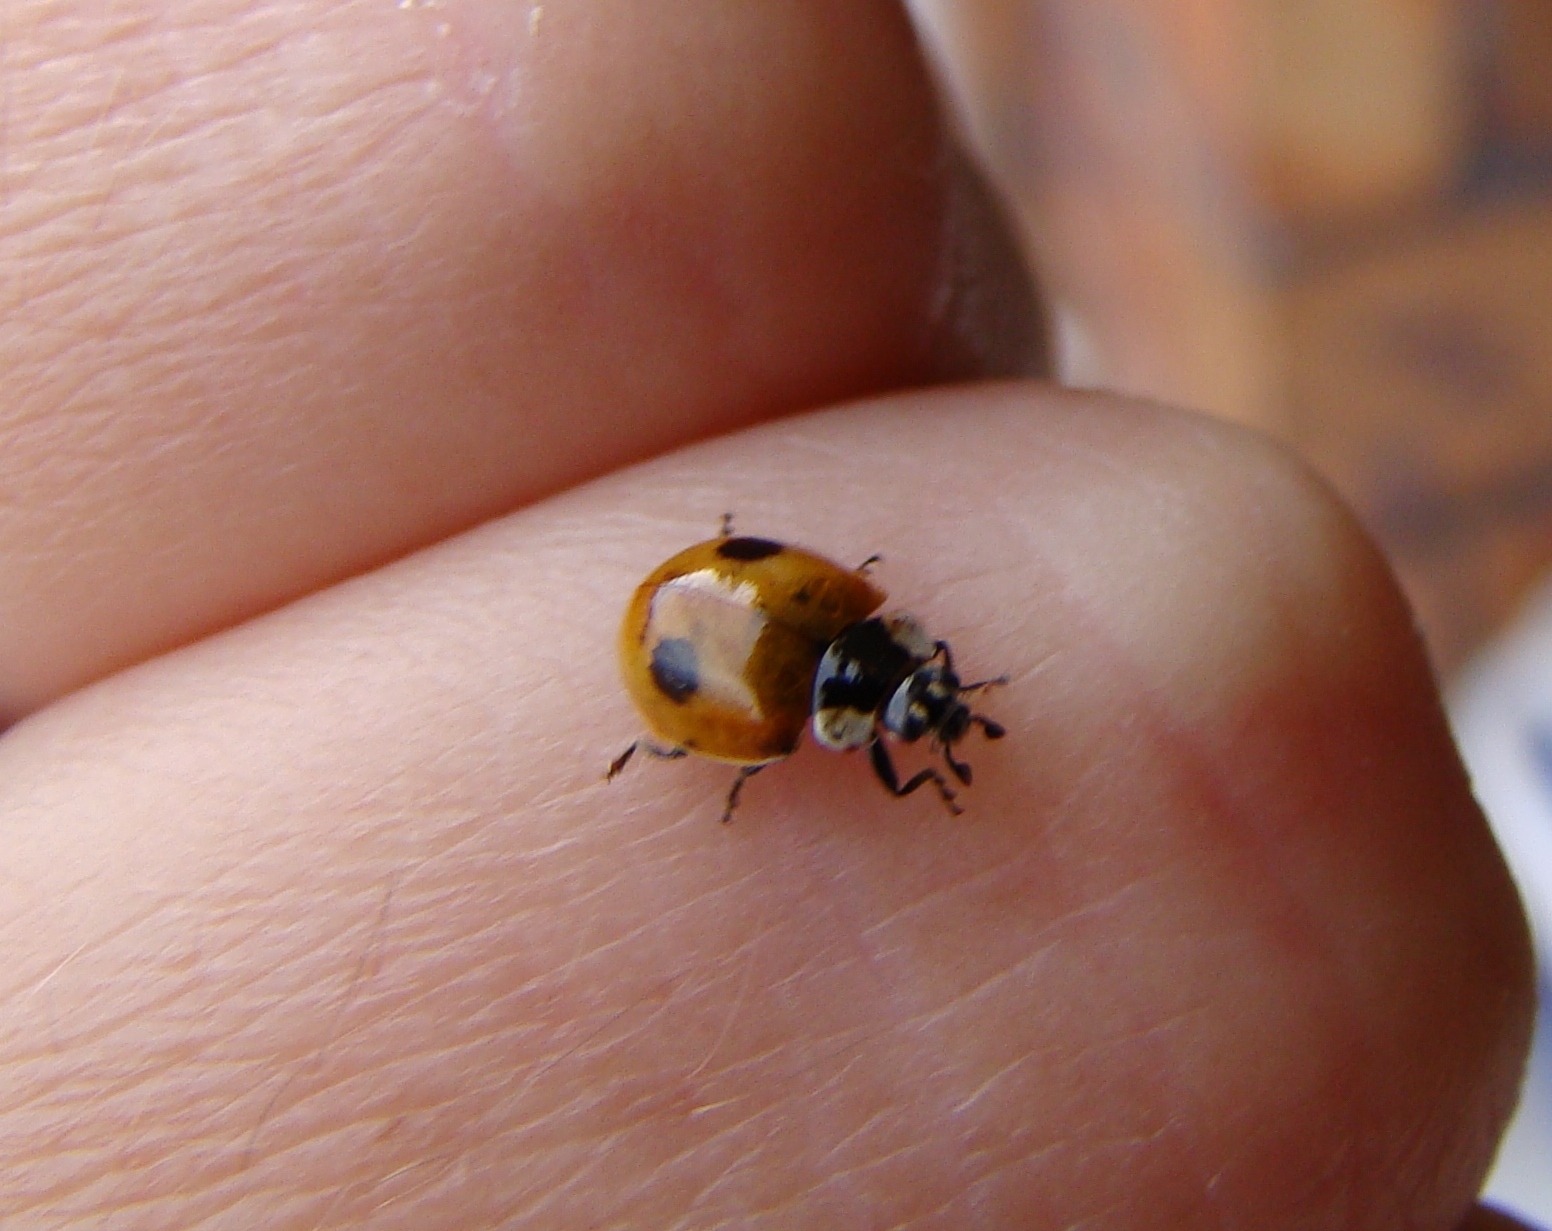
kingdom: Animalia
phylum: Arthropoda
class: Insecta
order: Coleoptera
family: Coccinellidae
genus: Adalia
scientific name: Adalia bipunctata
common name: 2-spot ladybird
